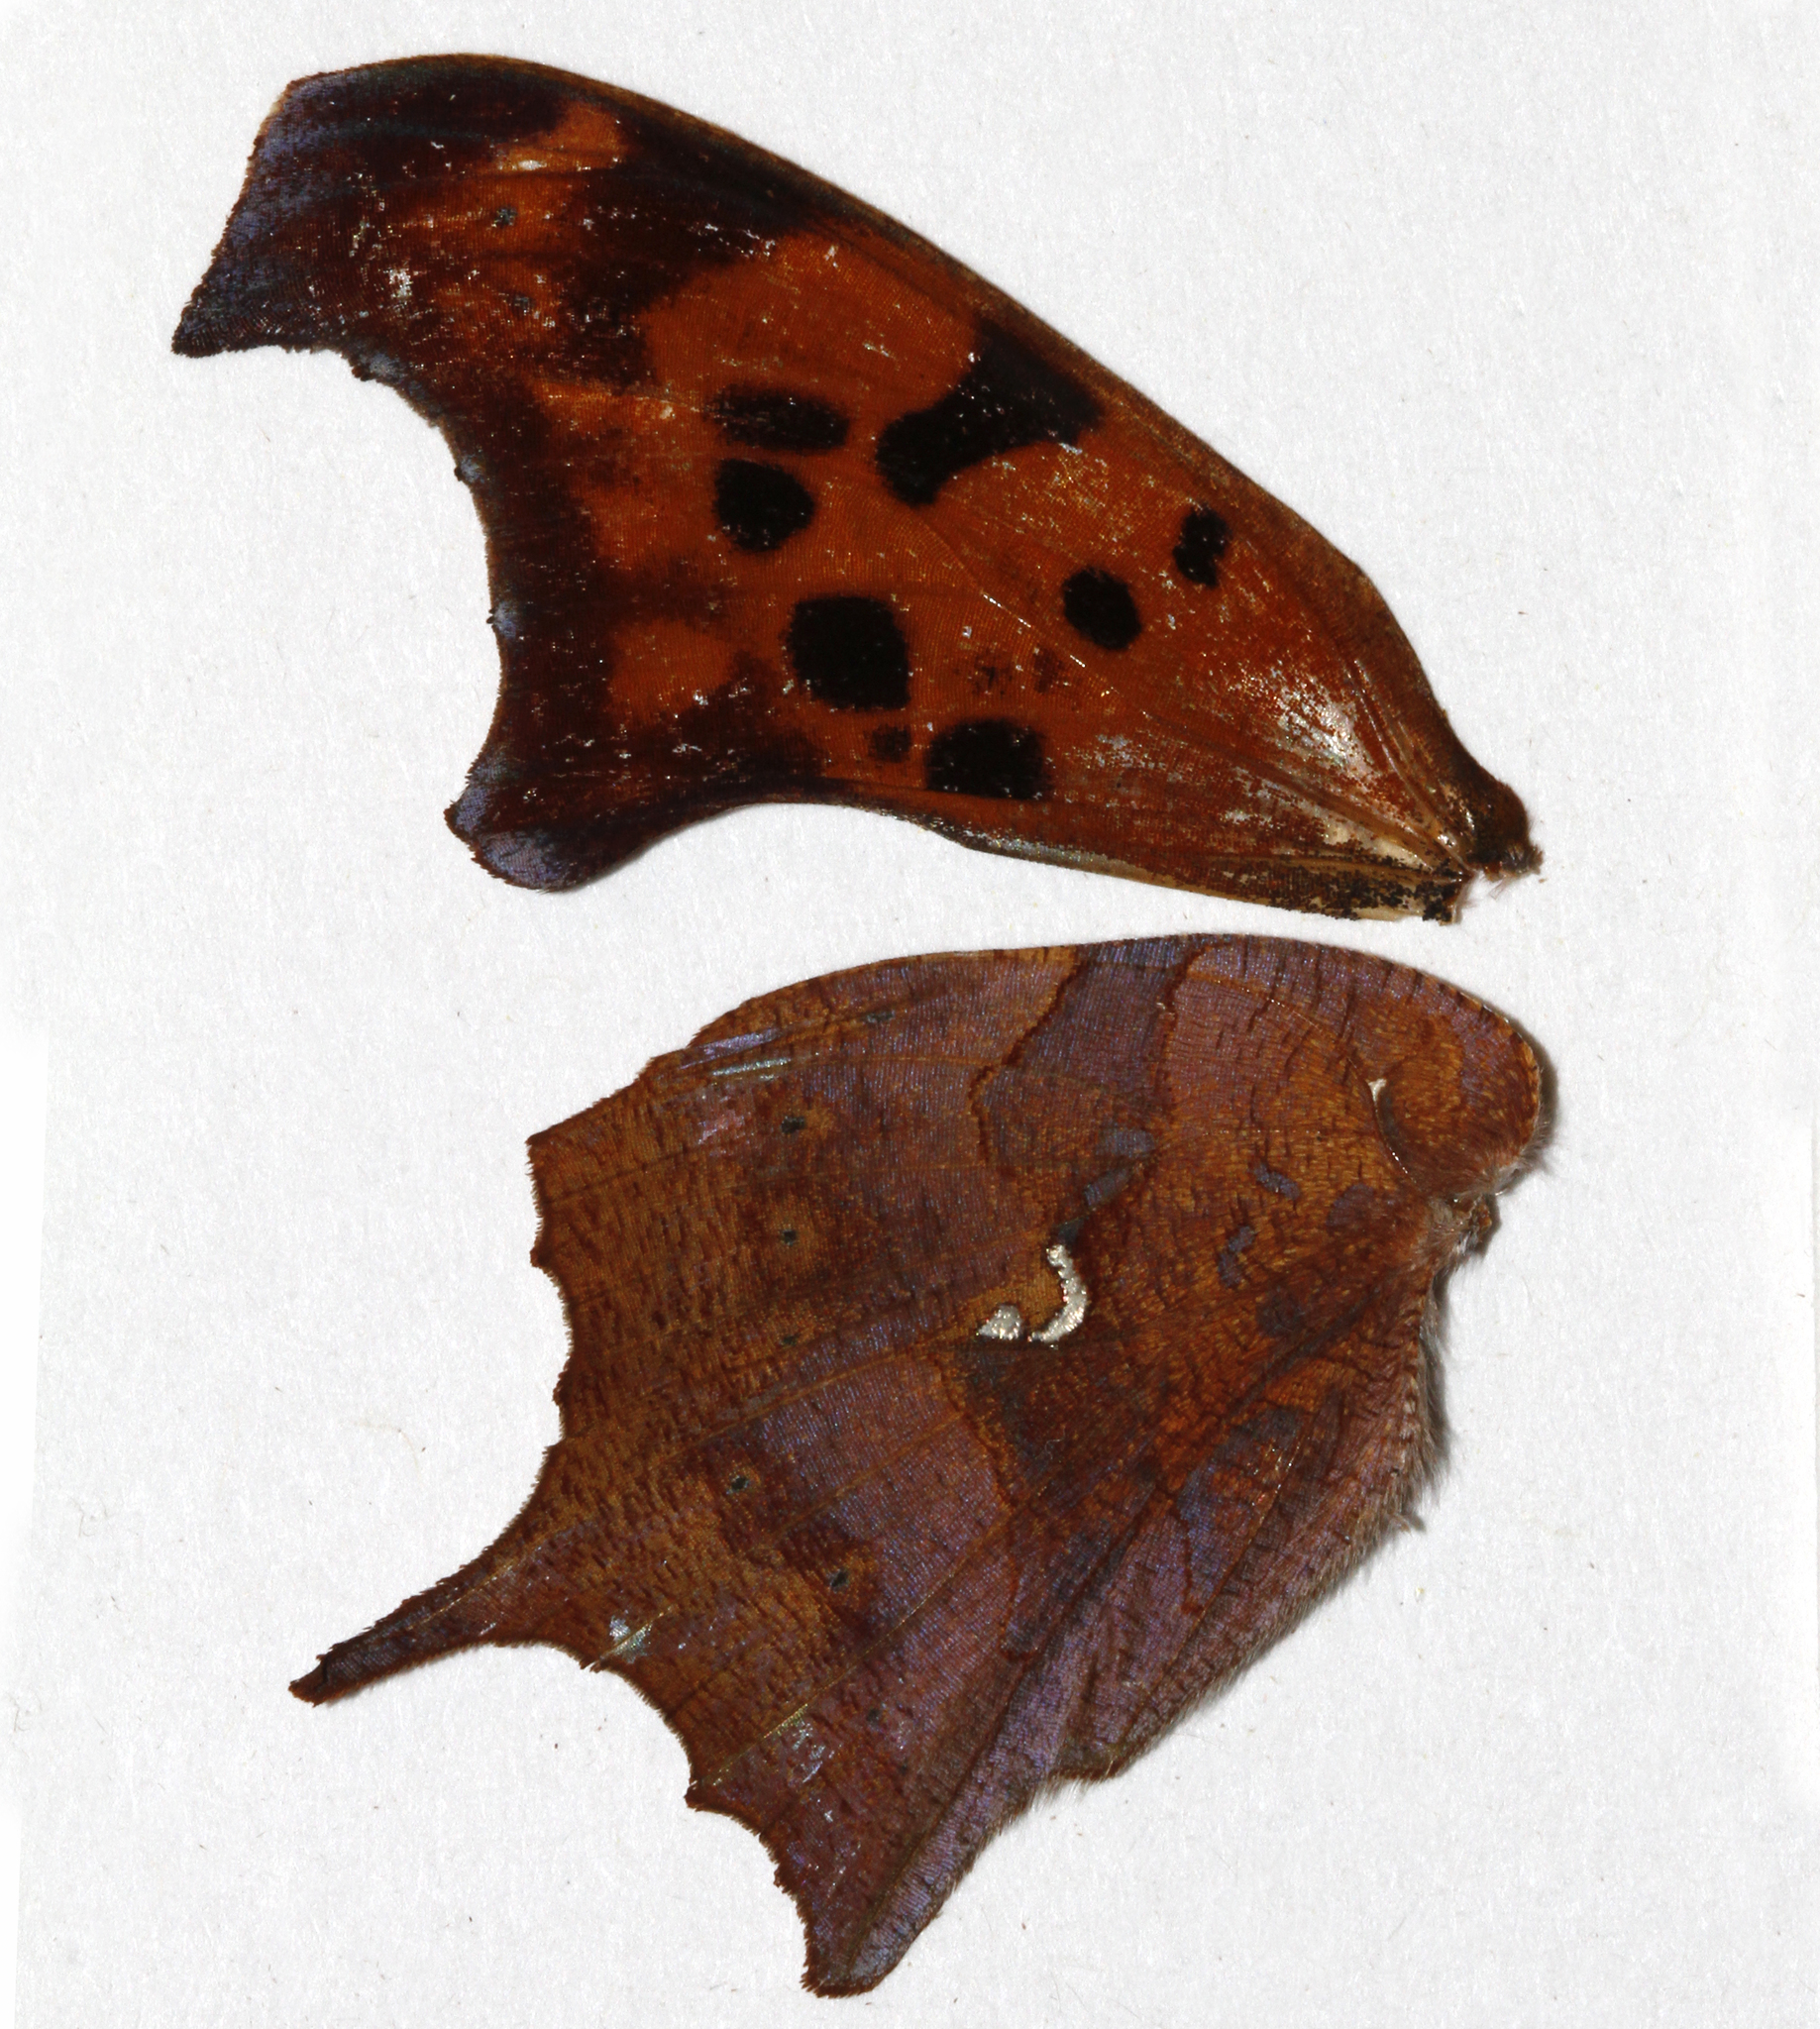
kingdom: Animalia
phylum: Arthropoda
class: Insecta
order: Lepidoptera
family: Nymphalidae
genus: Polygonia
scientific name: Polygonia interrogationis
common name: Question mark
